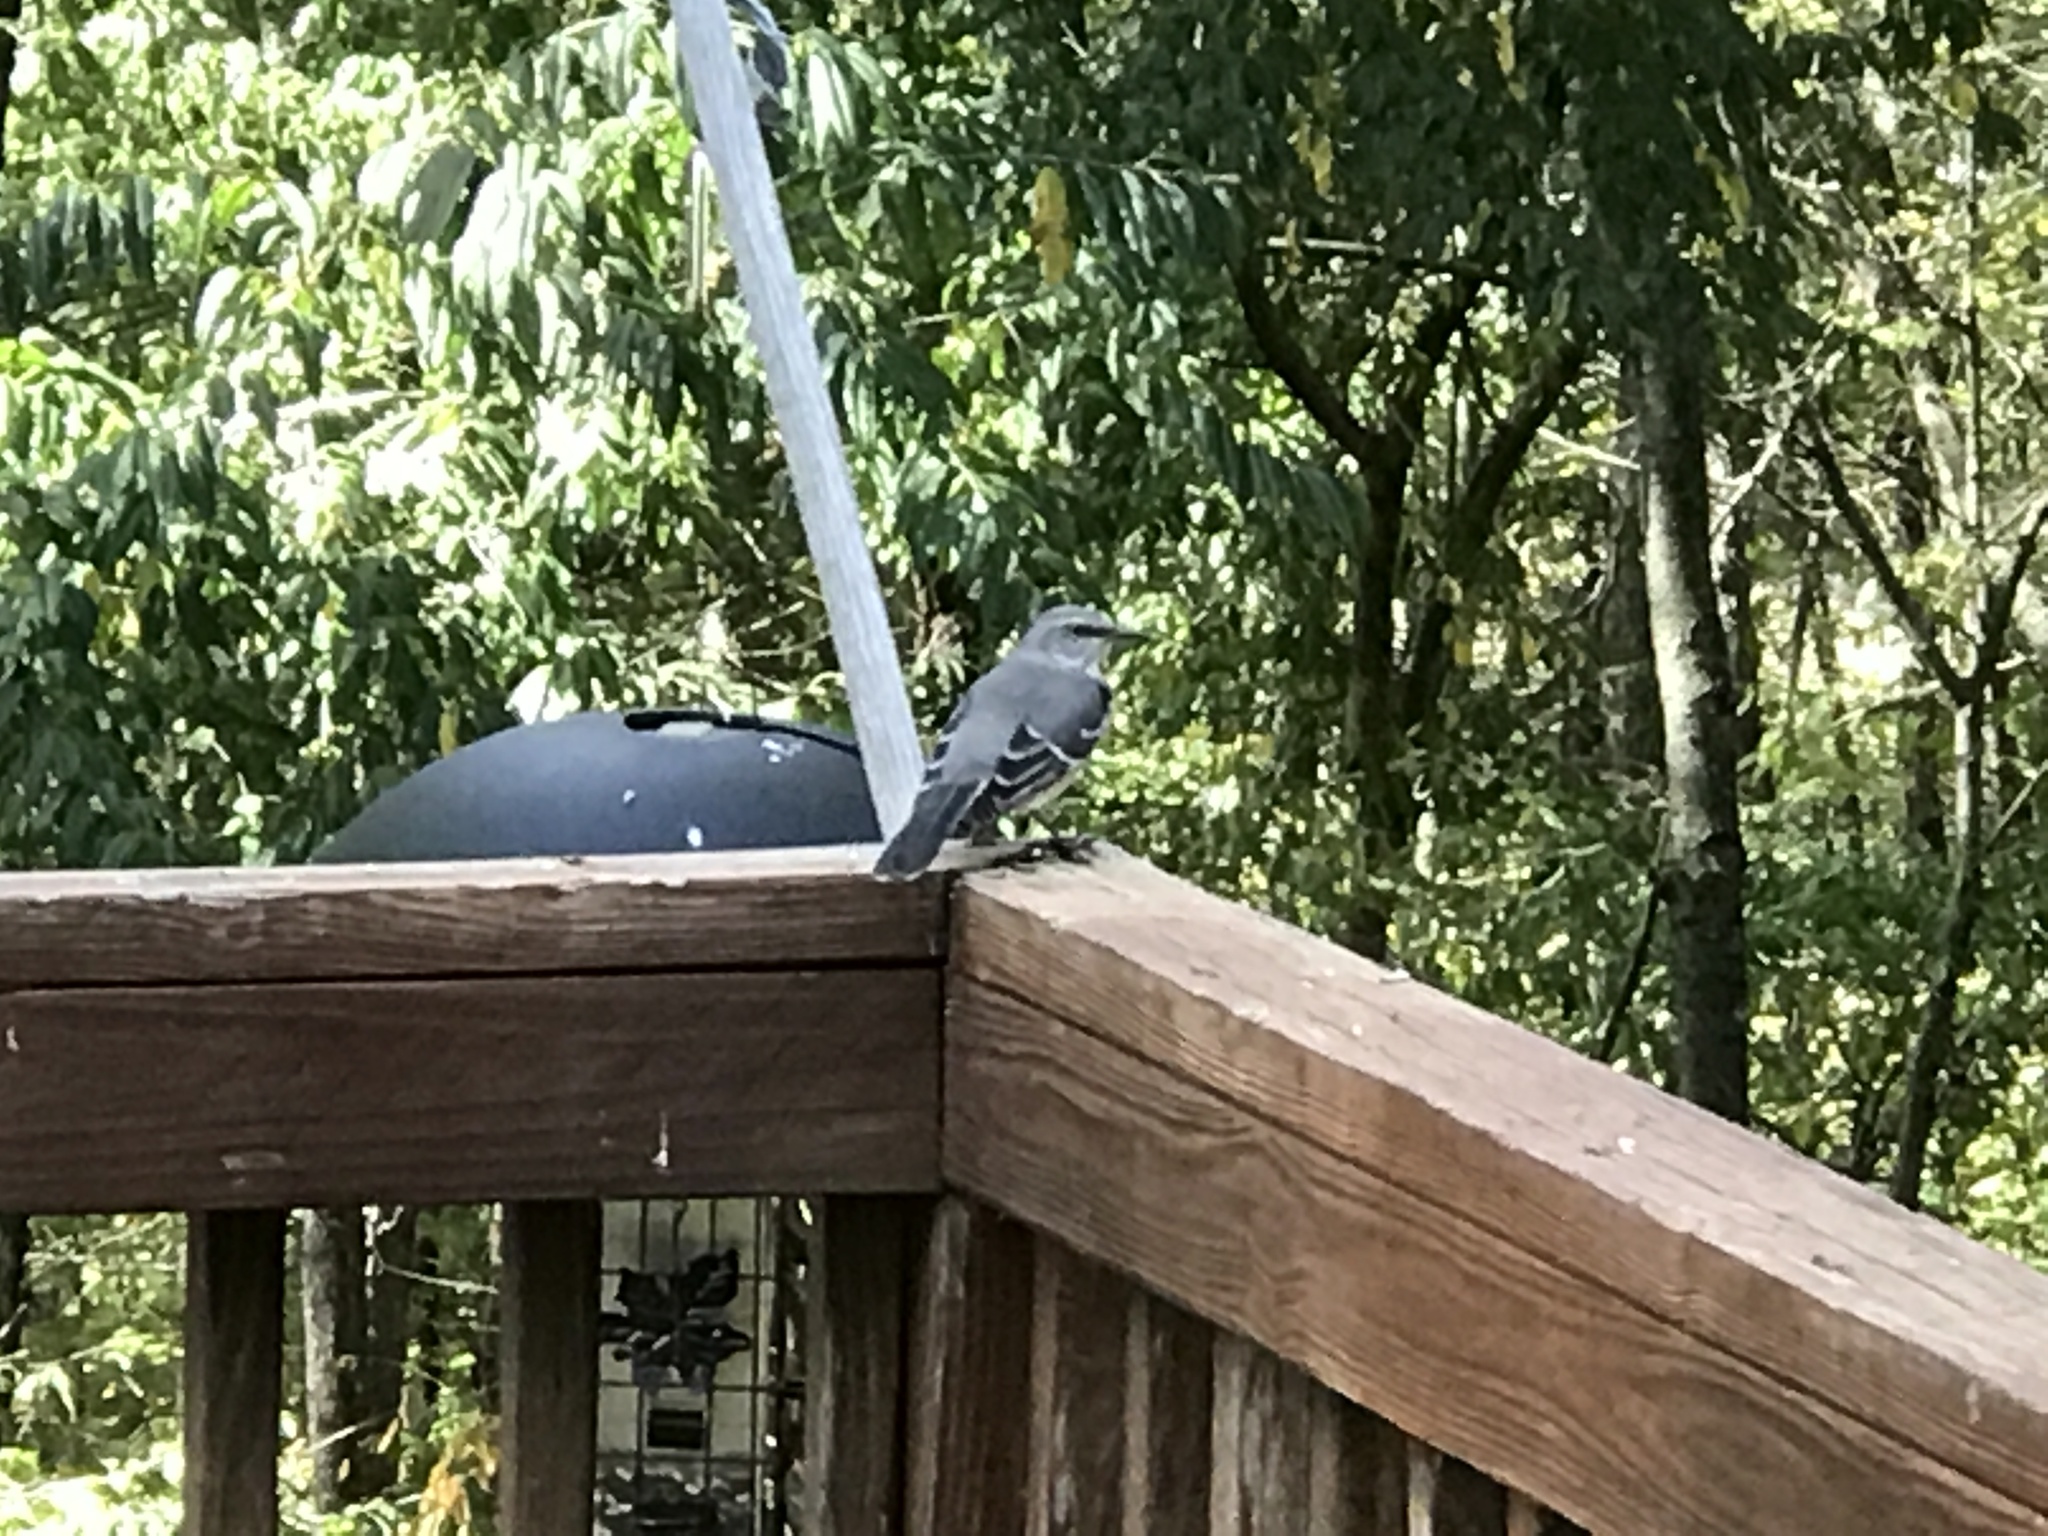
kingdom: Animalia
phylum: Chordata
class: Aves
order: Passeriformes
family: Mimidae
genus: Mimus
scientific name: Mimus polyglottos
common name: Northern mockingbird
